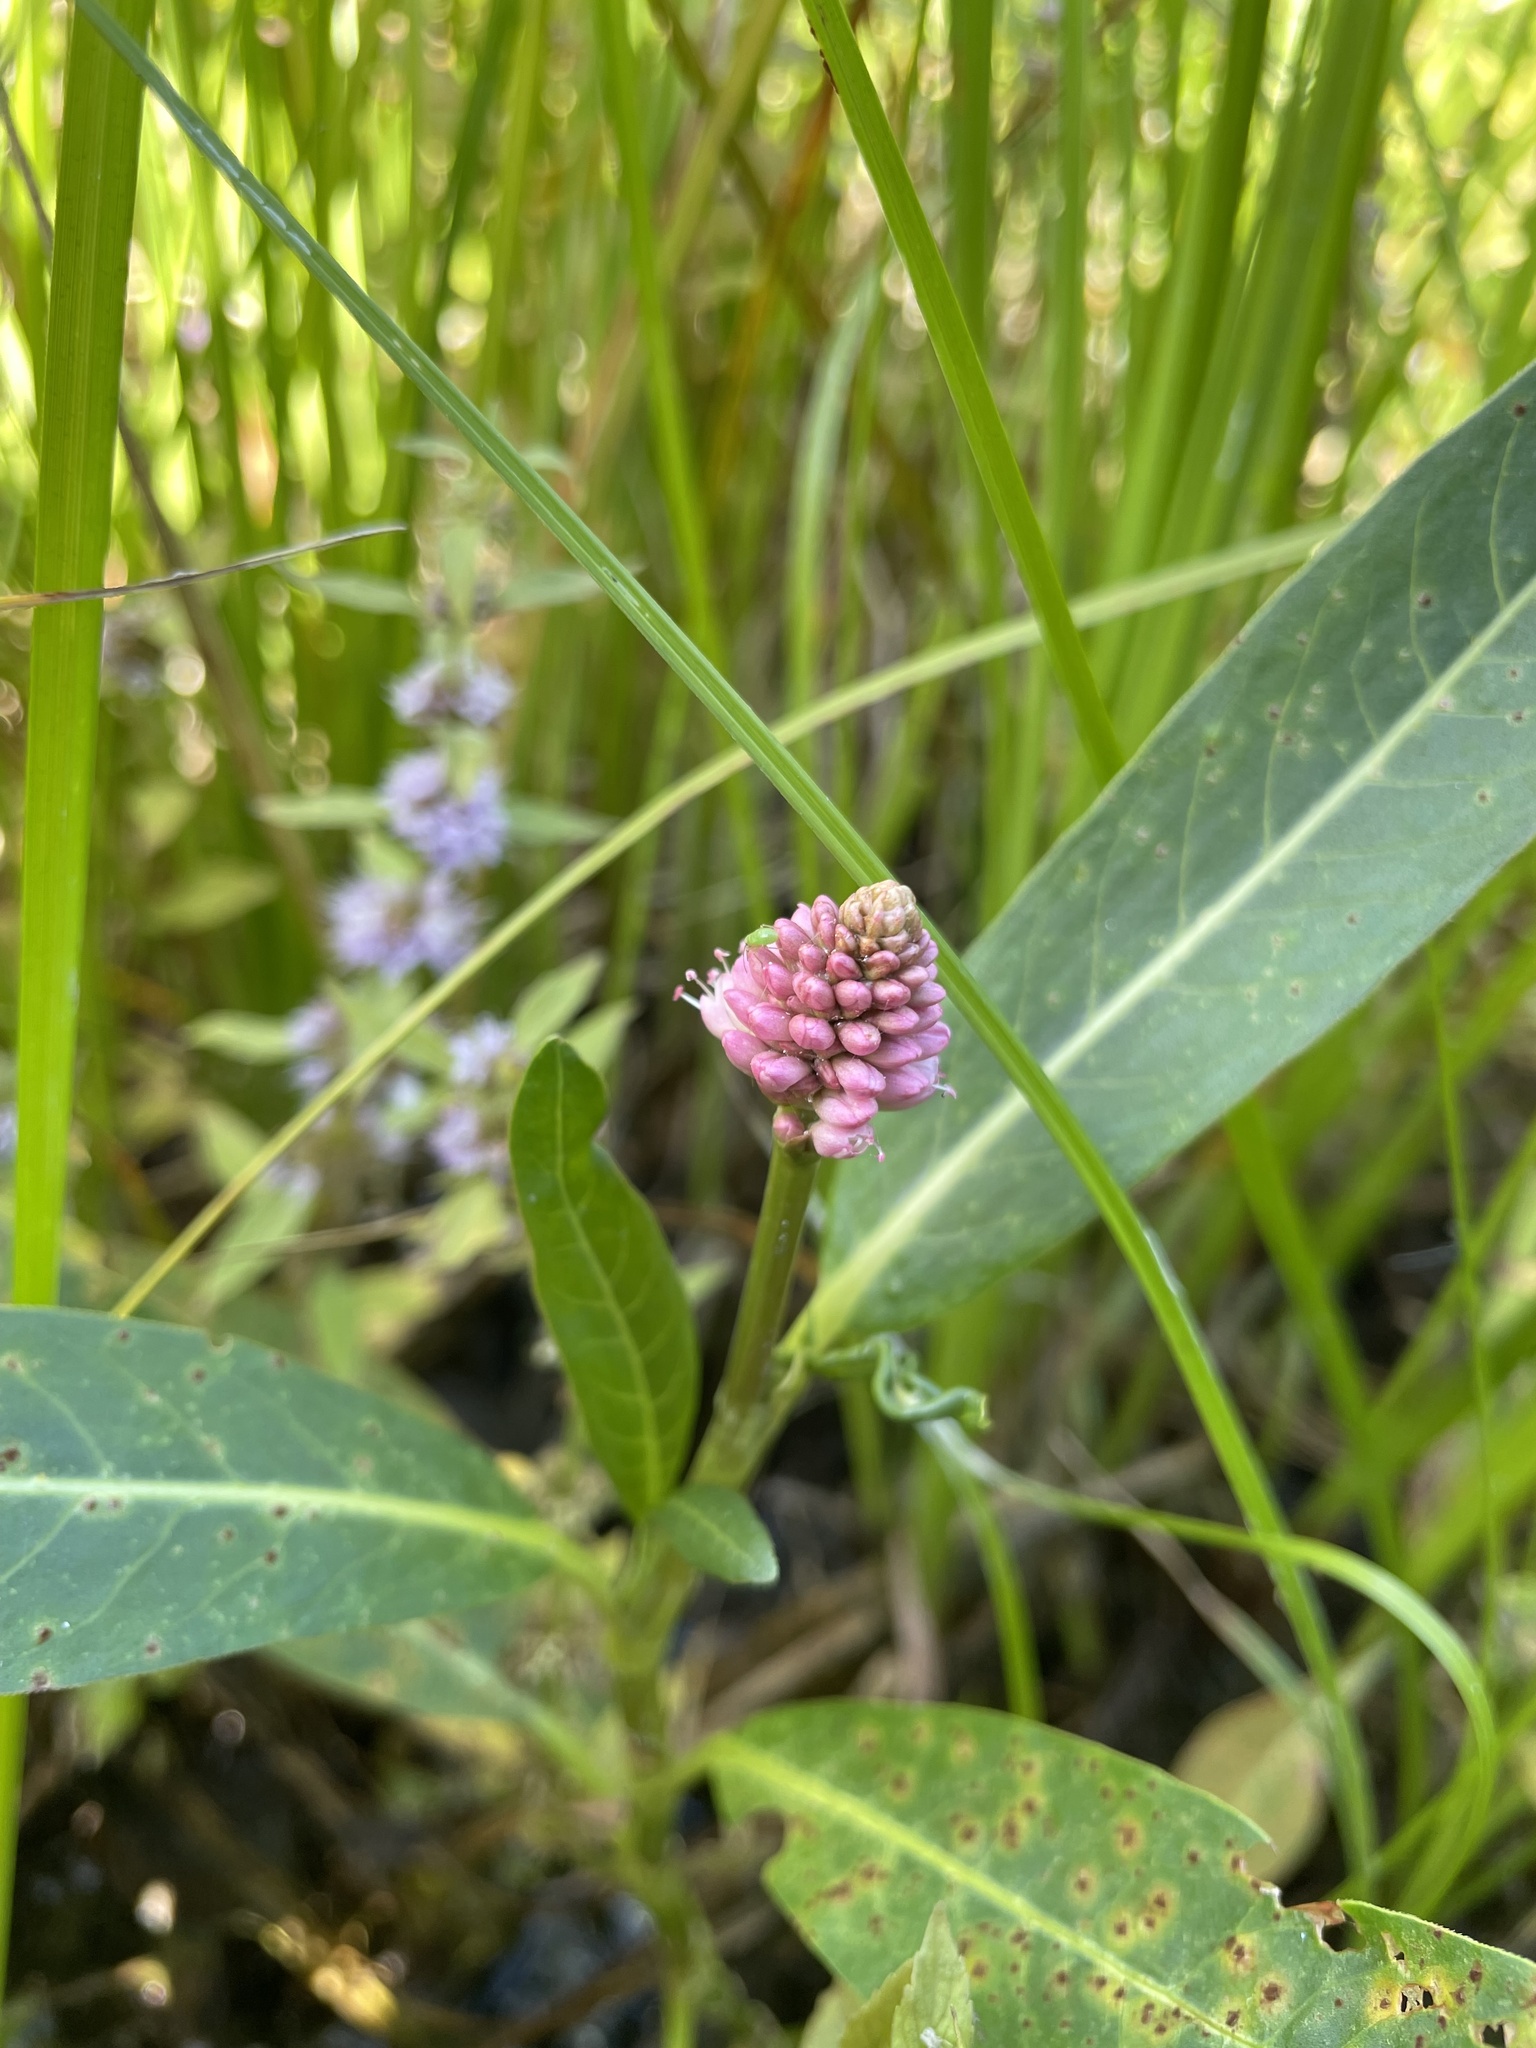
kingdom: Plantae
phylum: Tracheophyta
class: Magnoliopsida
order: Caryophyllales
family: Polygonaceae
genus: Persicaria
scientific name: Persicaria amphibia
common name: Amphibious bistort
